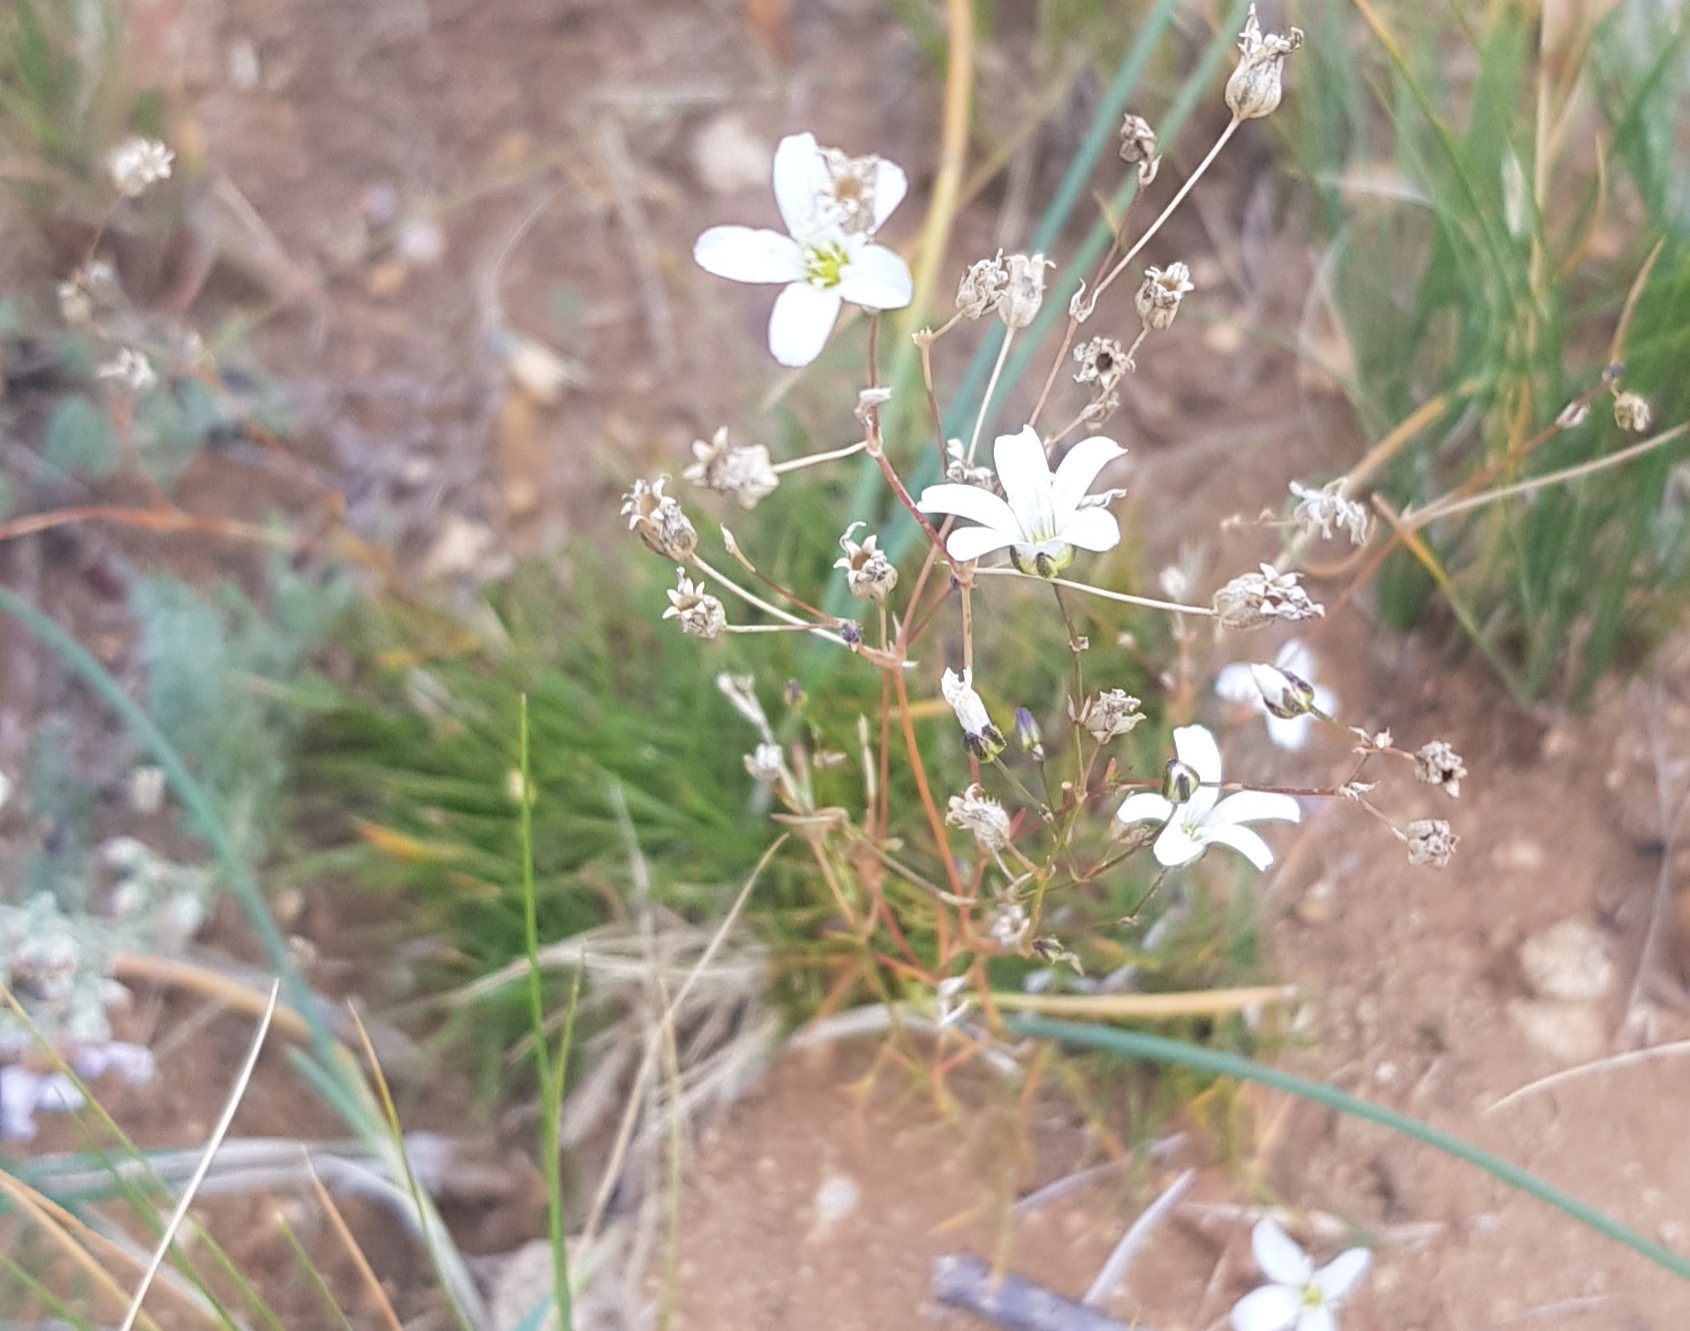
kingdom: Plantae
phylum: Tracheophyta
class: Magnoliopsida
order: Caryophyllales
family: Caryophyllaceae
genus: Eremogone
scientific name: Eremogone capillaris
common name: Slender mountain sandwort
